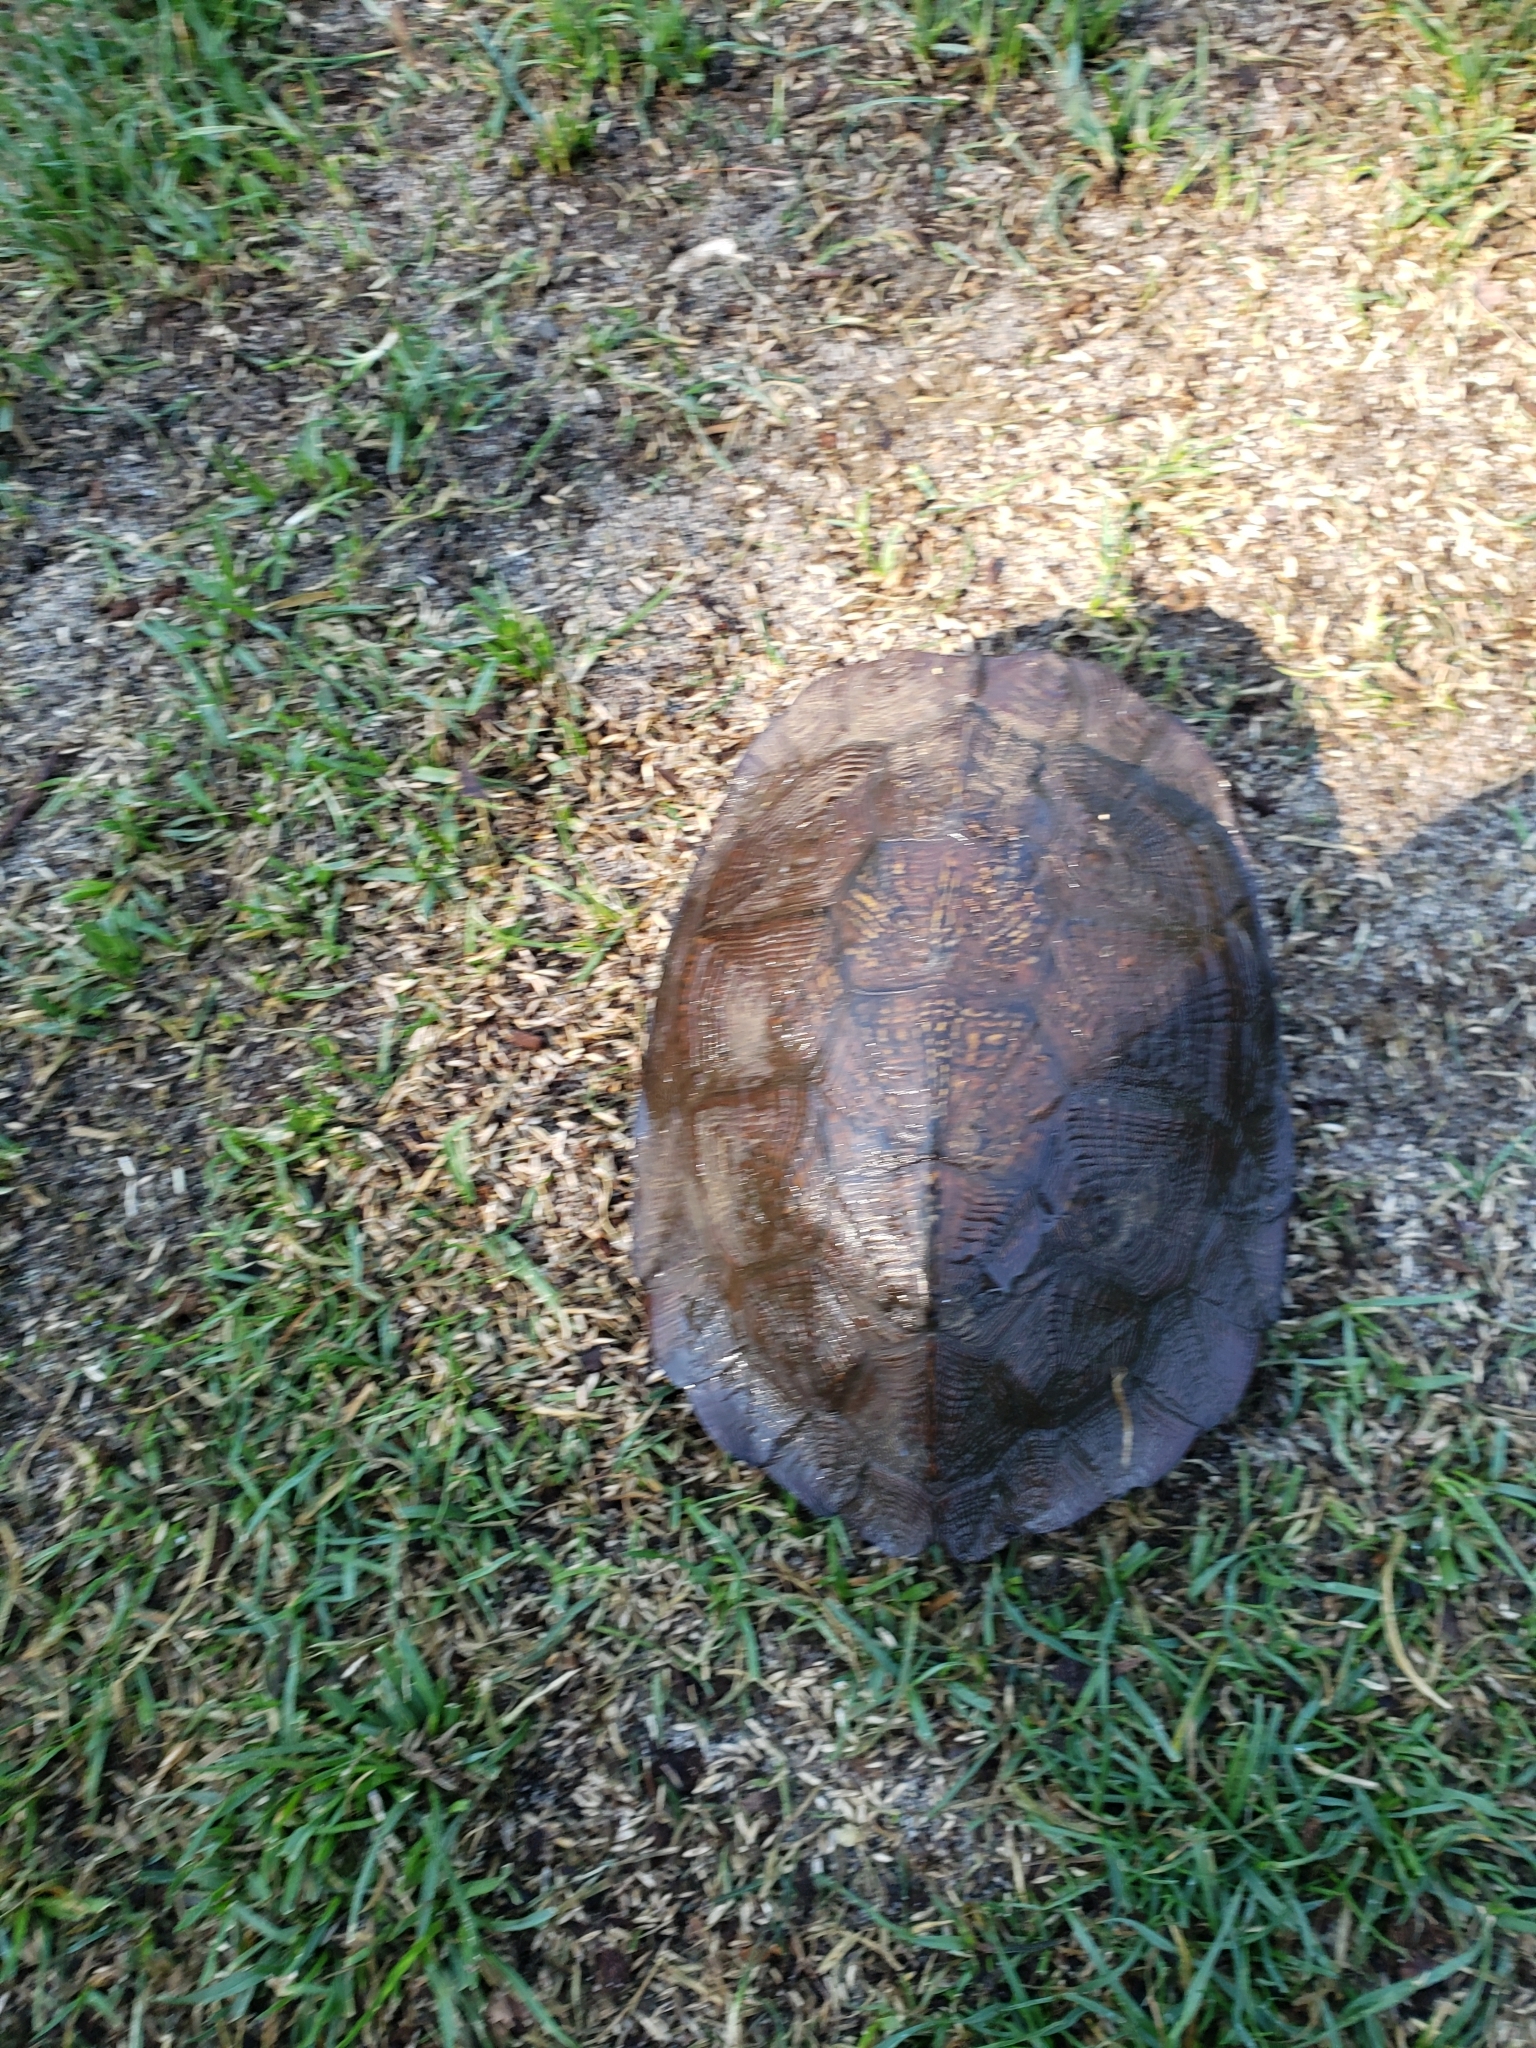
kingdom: Animalia
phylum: Chordata
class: Testudines
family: Emydidae
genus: Glyptemys
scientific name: Glyptemys insculpta
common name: Wood turtle
